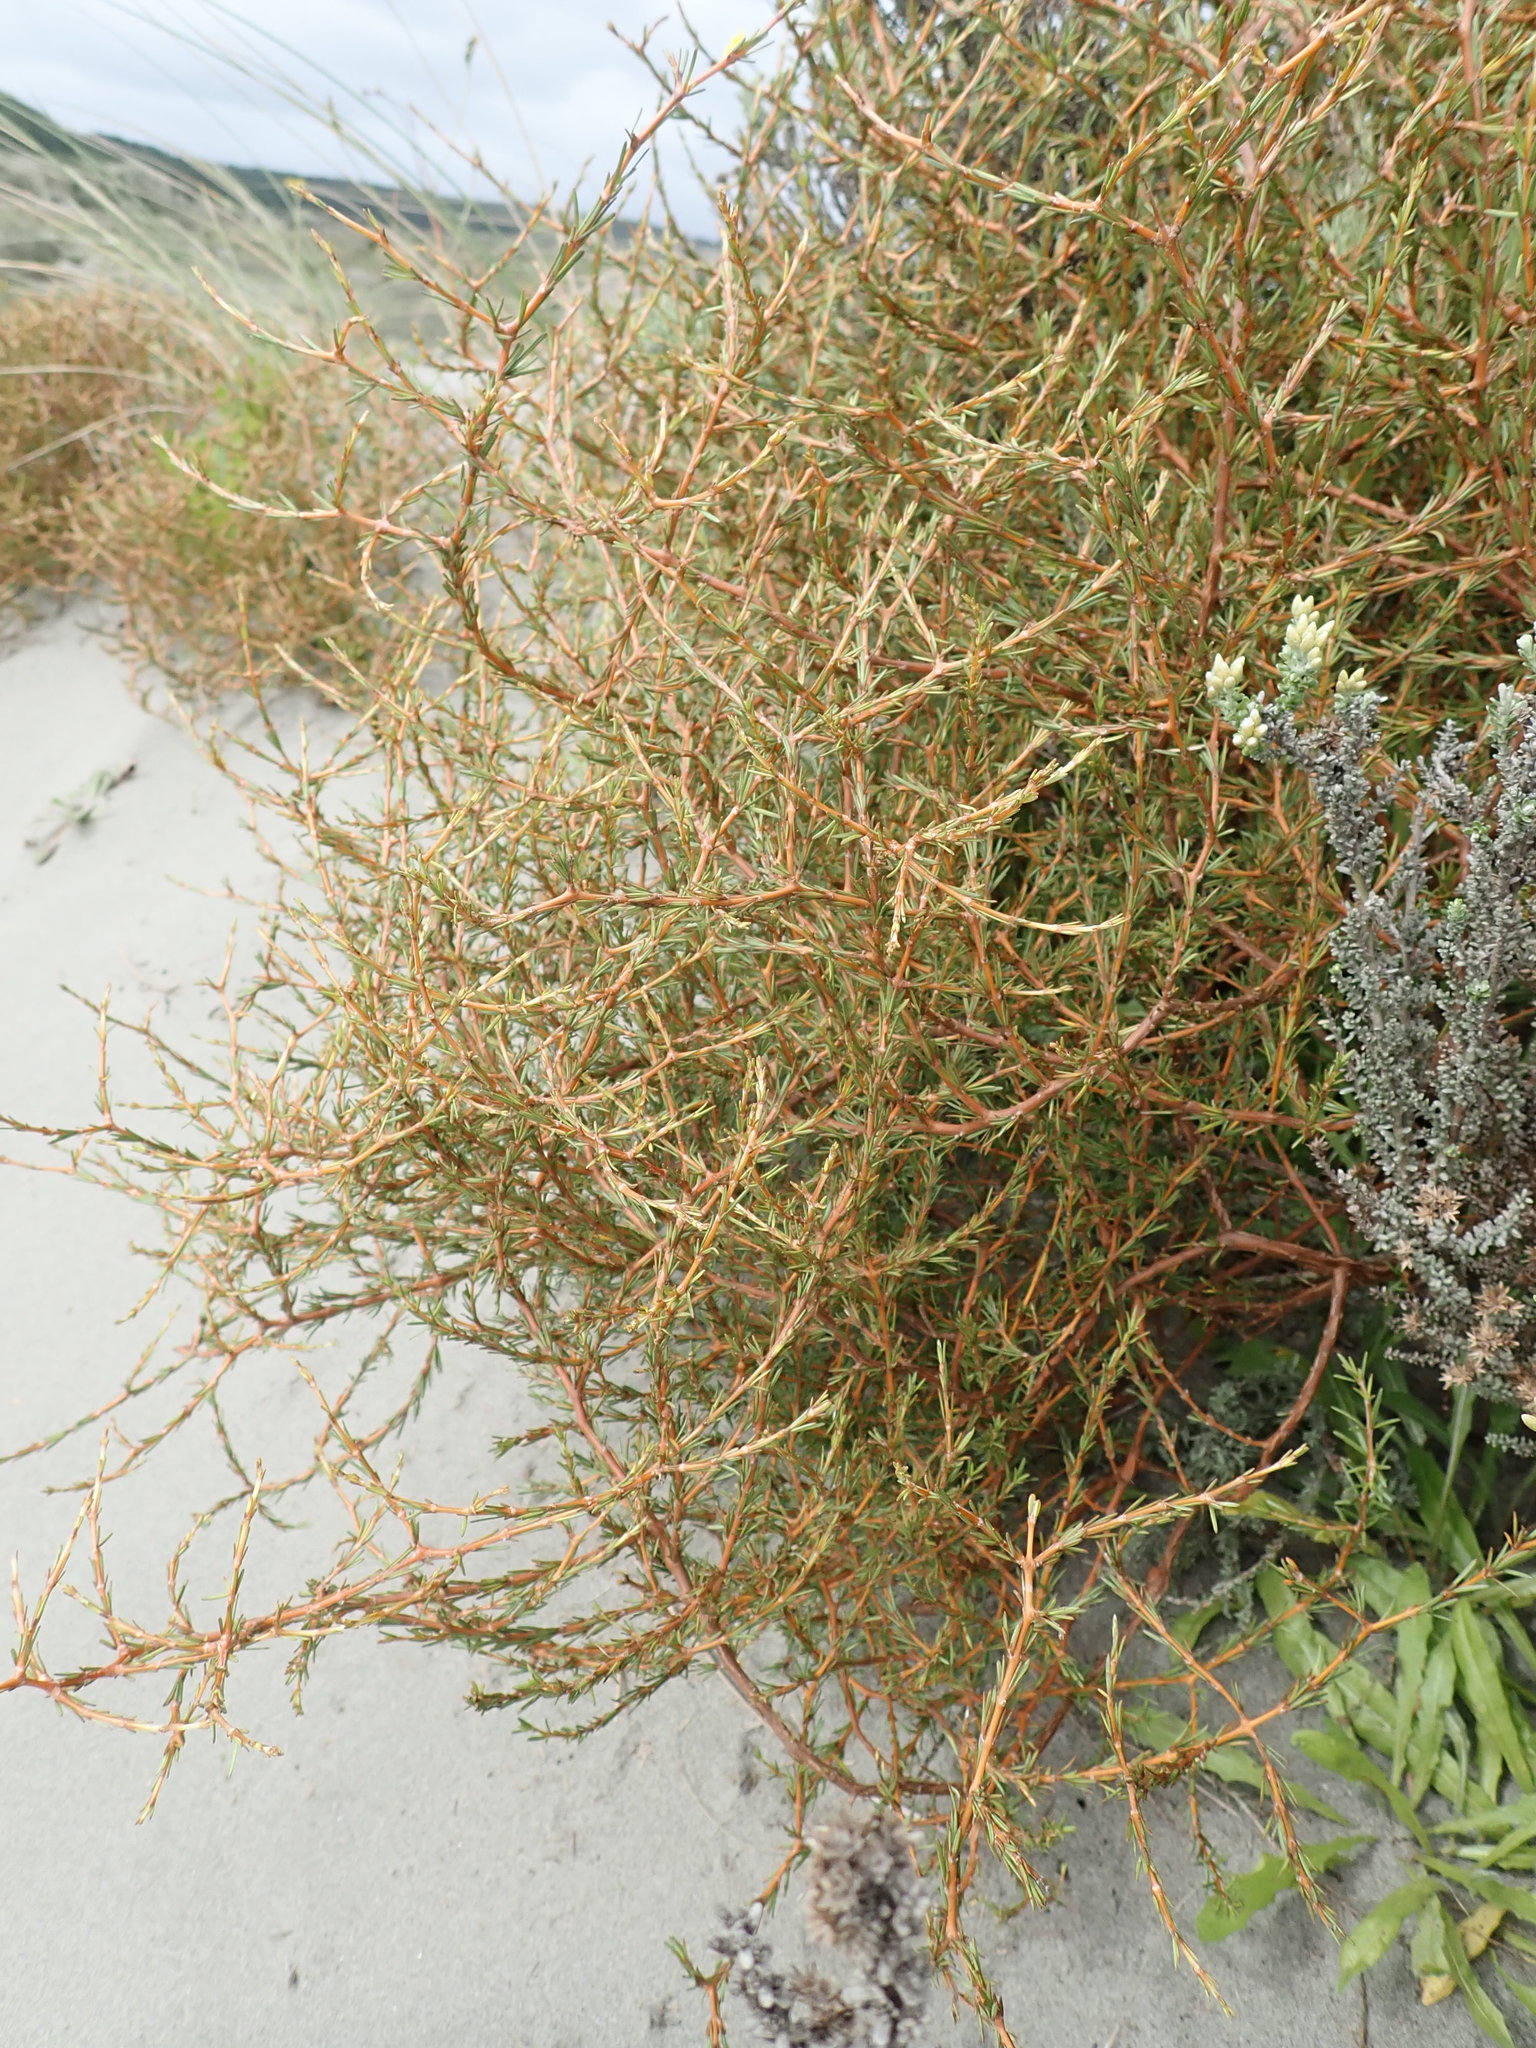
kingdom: Plantae
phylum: Tracheophyta
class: Magnoliopsida
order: Gentianales
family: Rubiaceae
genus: Coprosma
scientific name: Coprosma acerosa
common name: Sand coprosma
